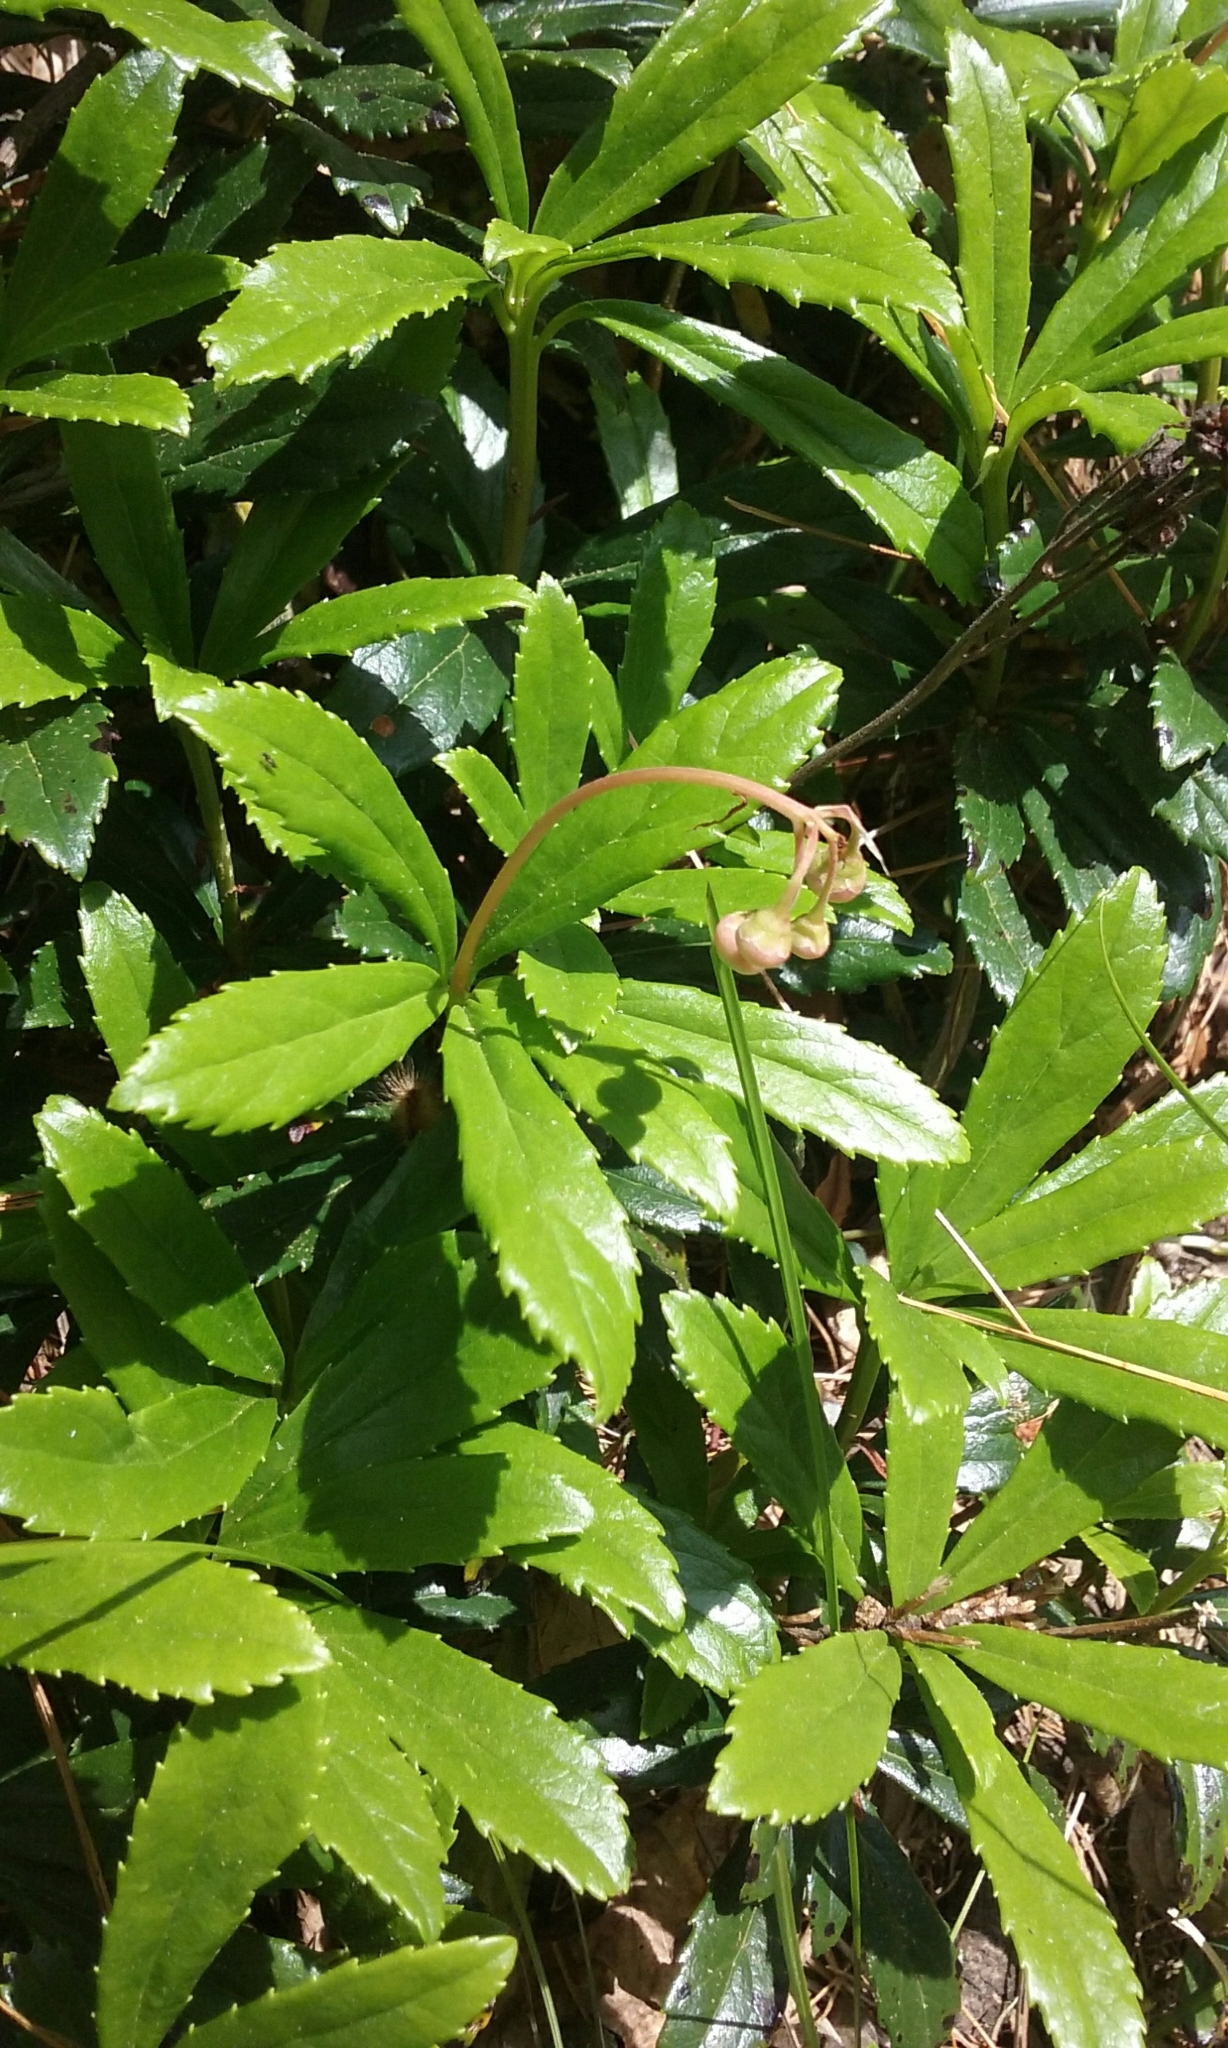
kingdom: Plantae
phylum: Tracheophyta
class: Magnoliopsida
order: Ericales
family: Ericaceae
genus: Chimaphila
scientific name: Chimaphila umbellata
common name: Pipsissewa
